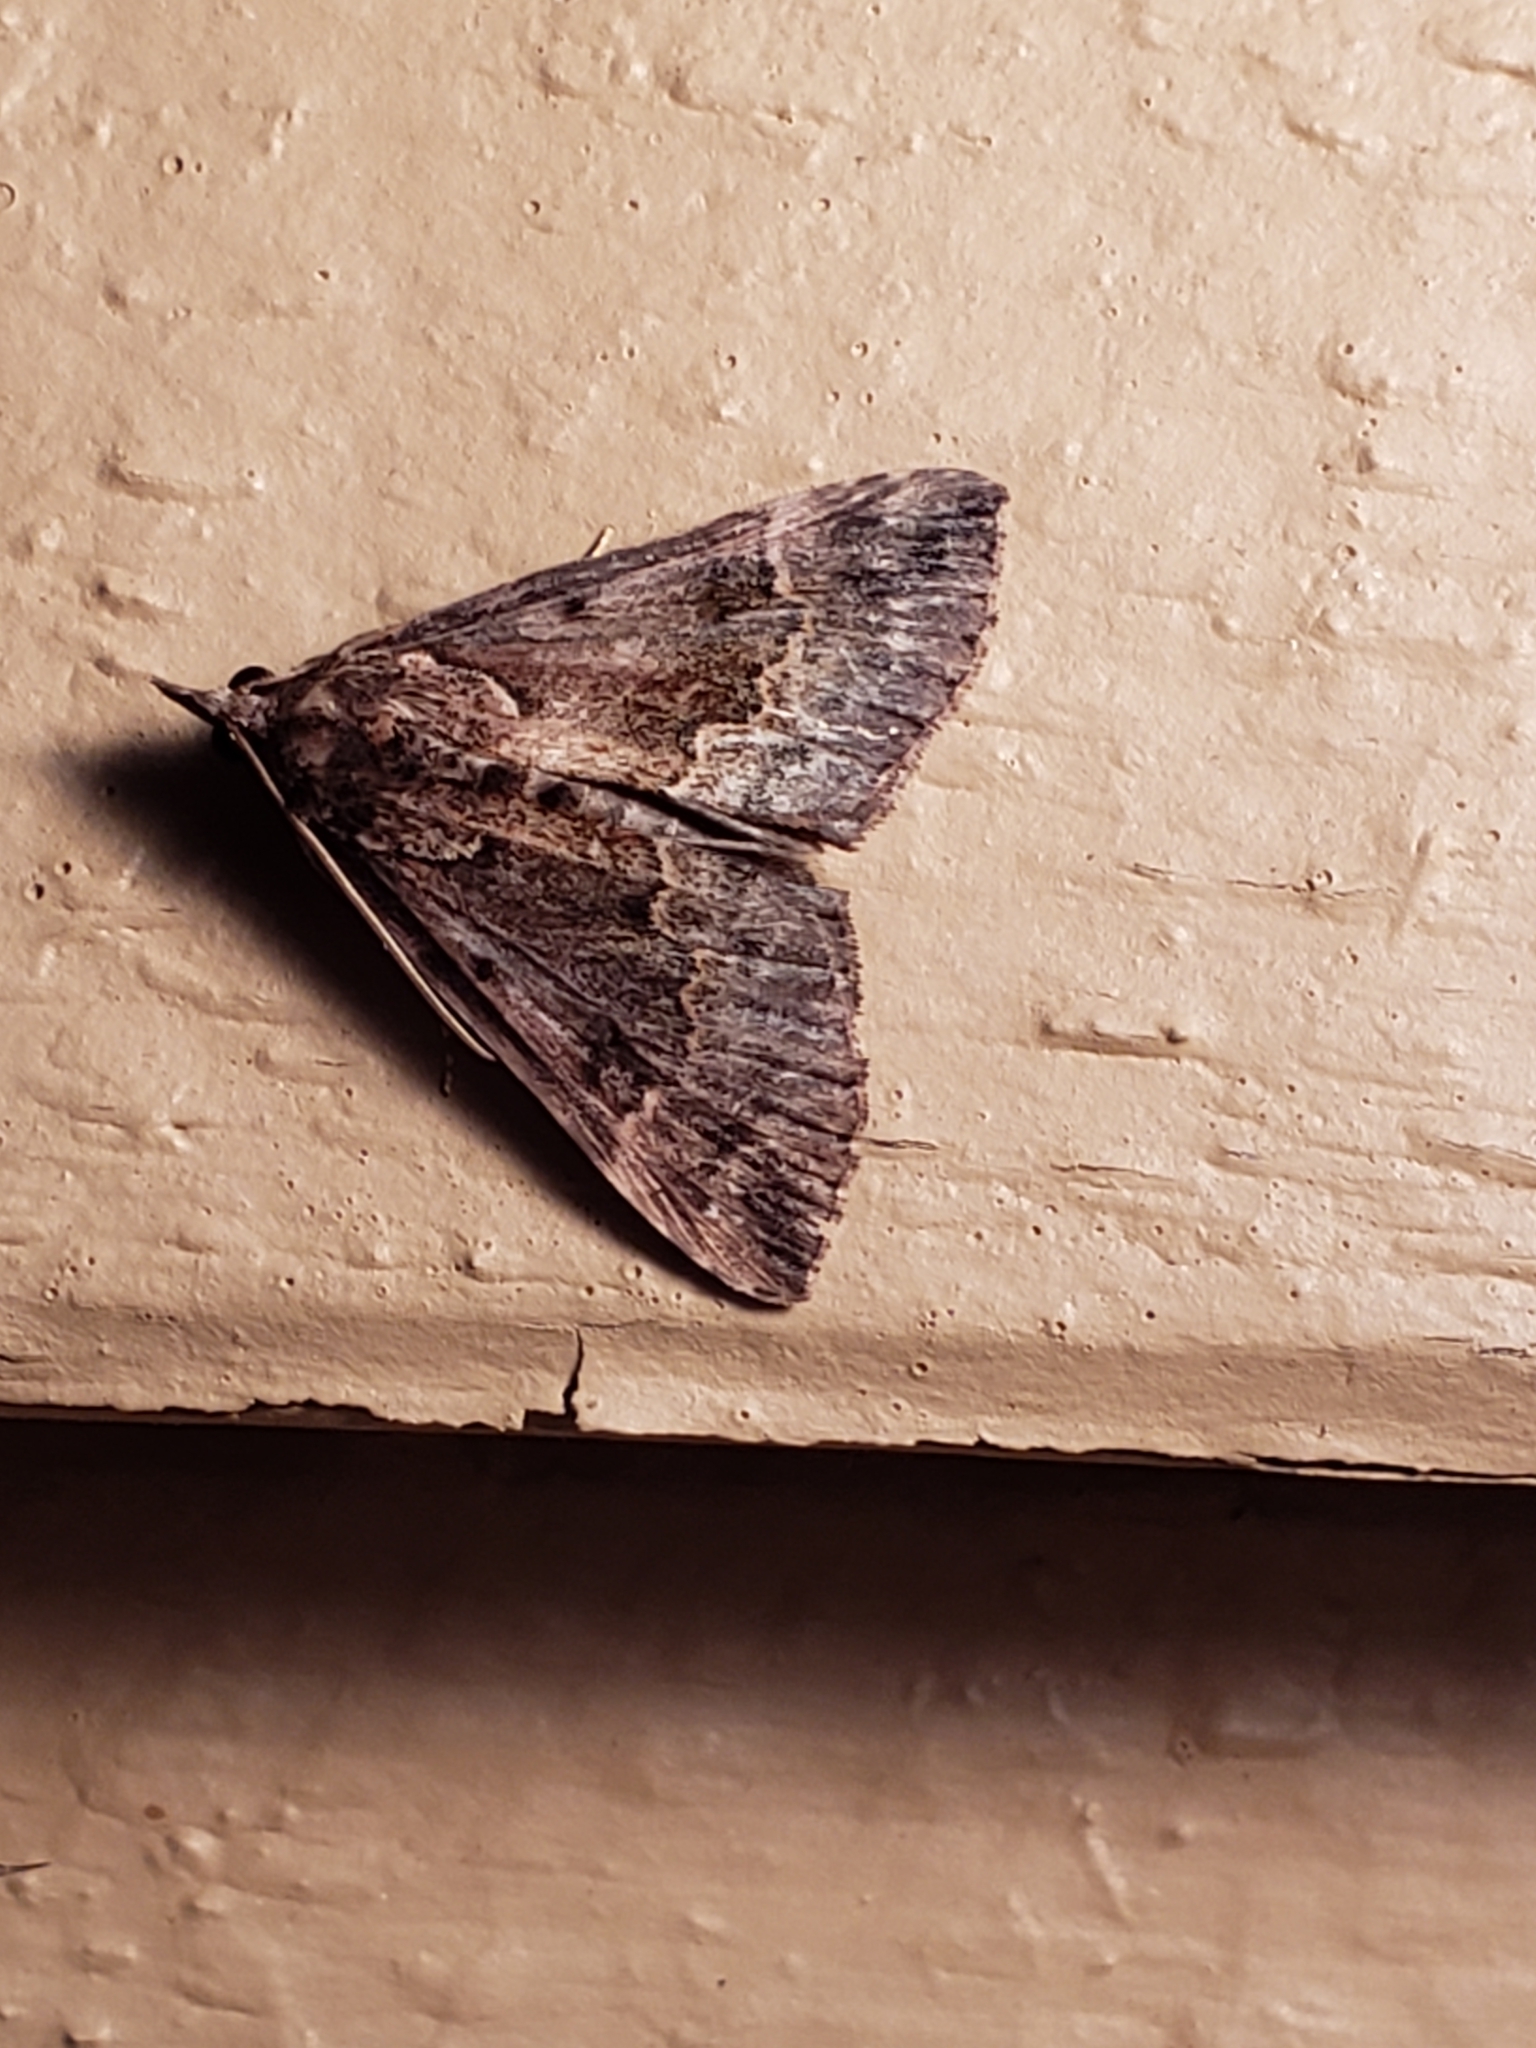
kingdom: Animalia
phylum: Arthropoda
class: Insecta
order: Lepidoptera
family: Erebidae
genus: Hypena
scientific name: Hypena baltimoralis
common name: Baltimore snout
